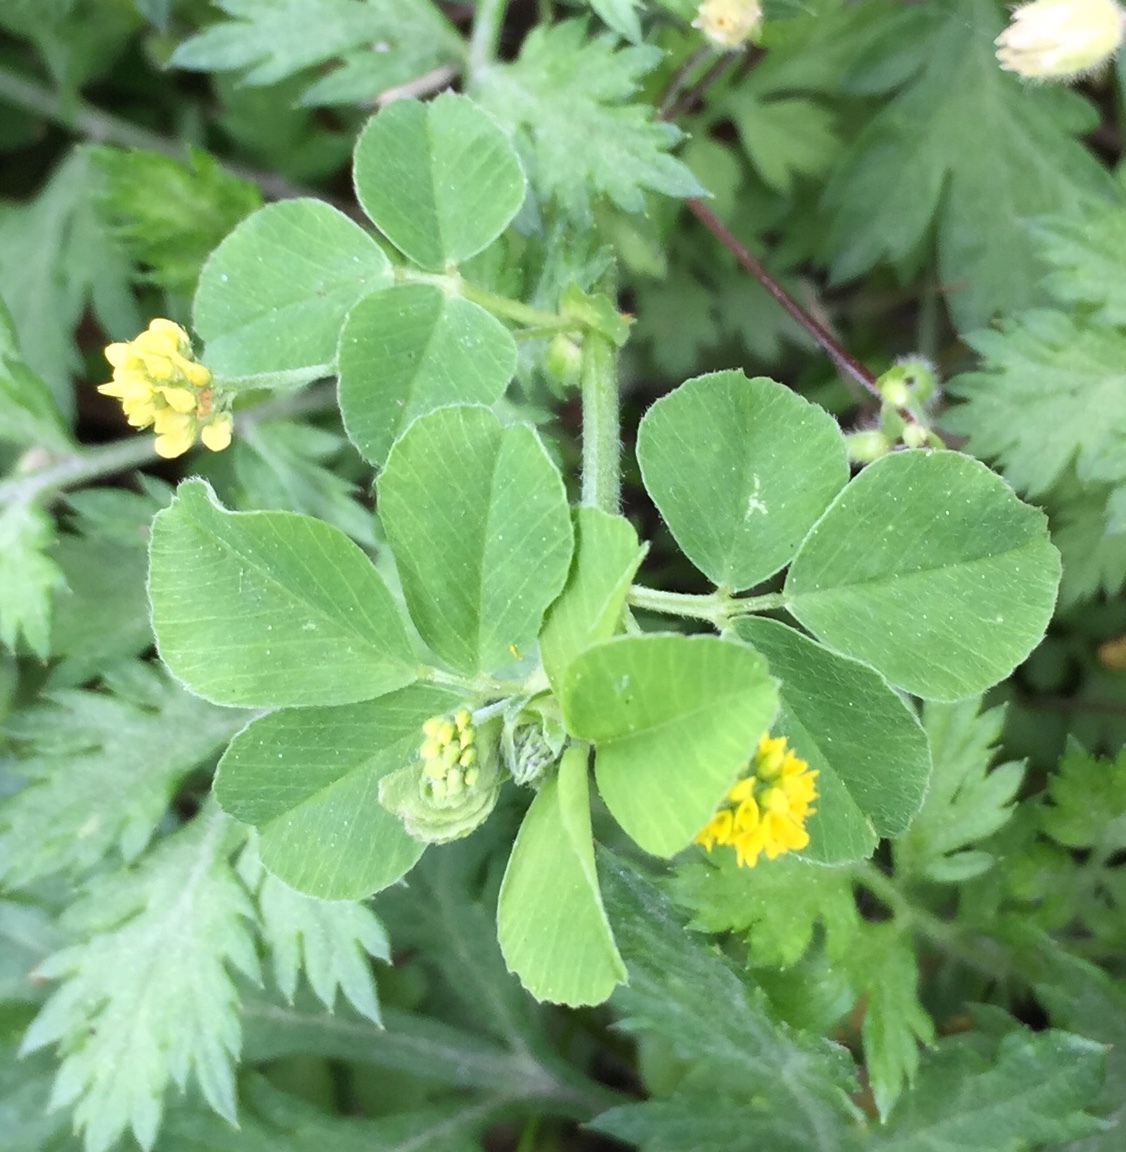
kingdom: Plantae
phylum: Tracheophyta
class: Magnoliopsida
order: Fabales
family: Fabaceae
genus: Medicago
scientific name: Medicago lupulina
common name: Black medick
